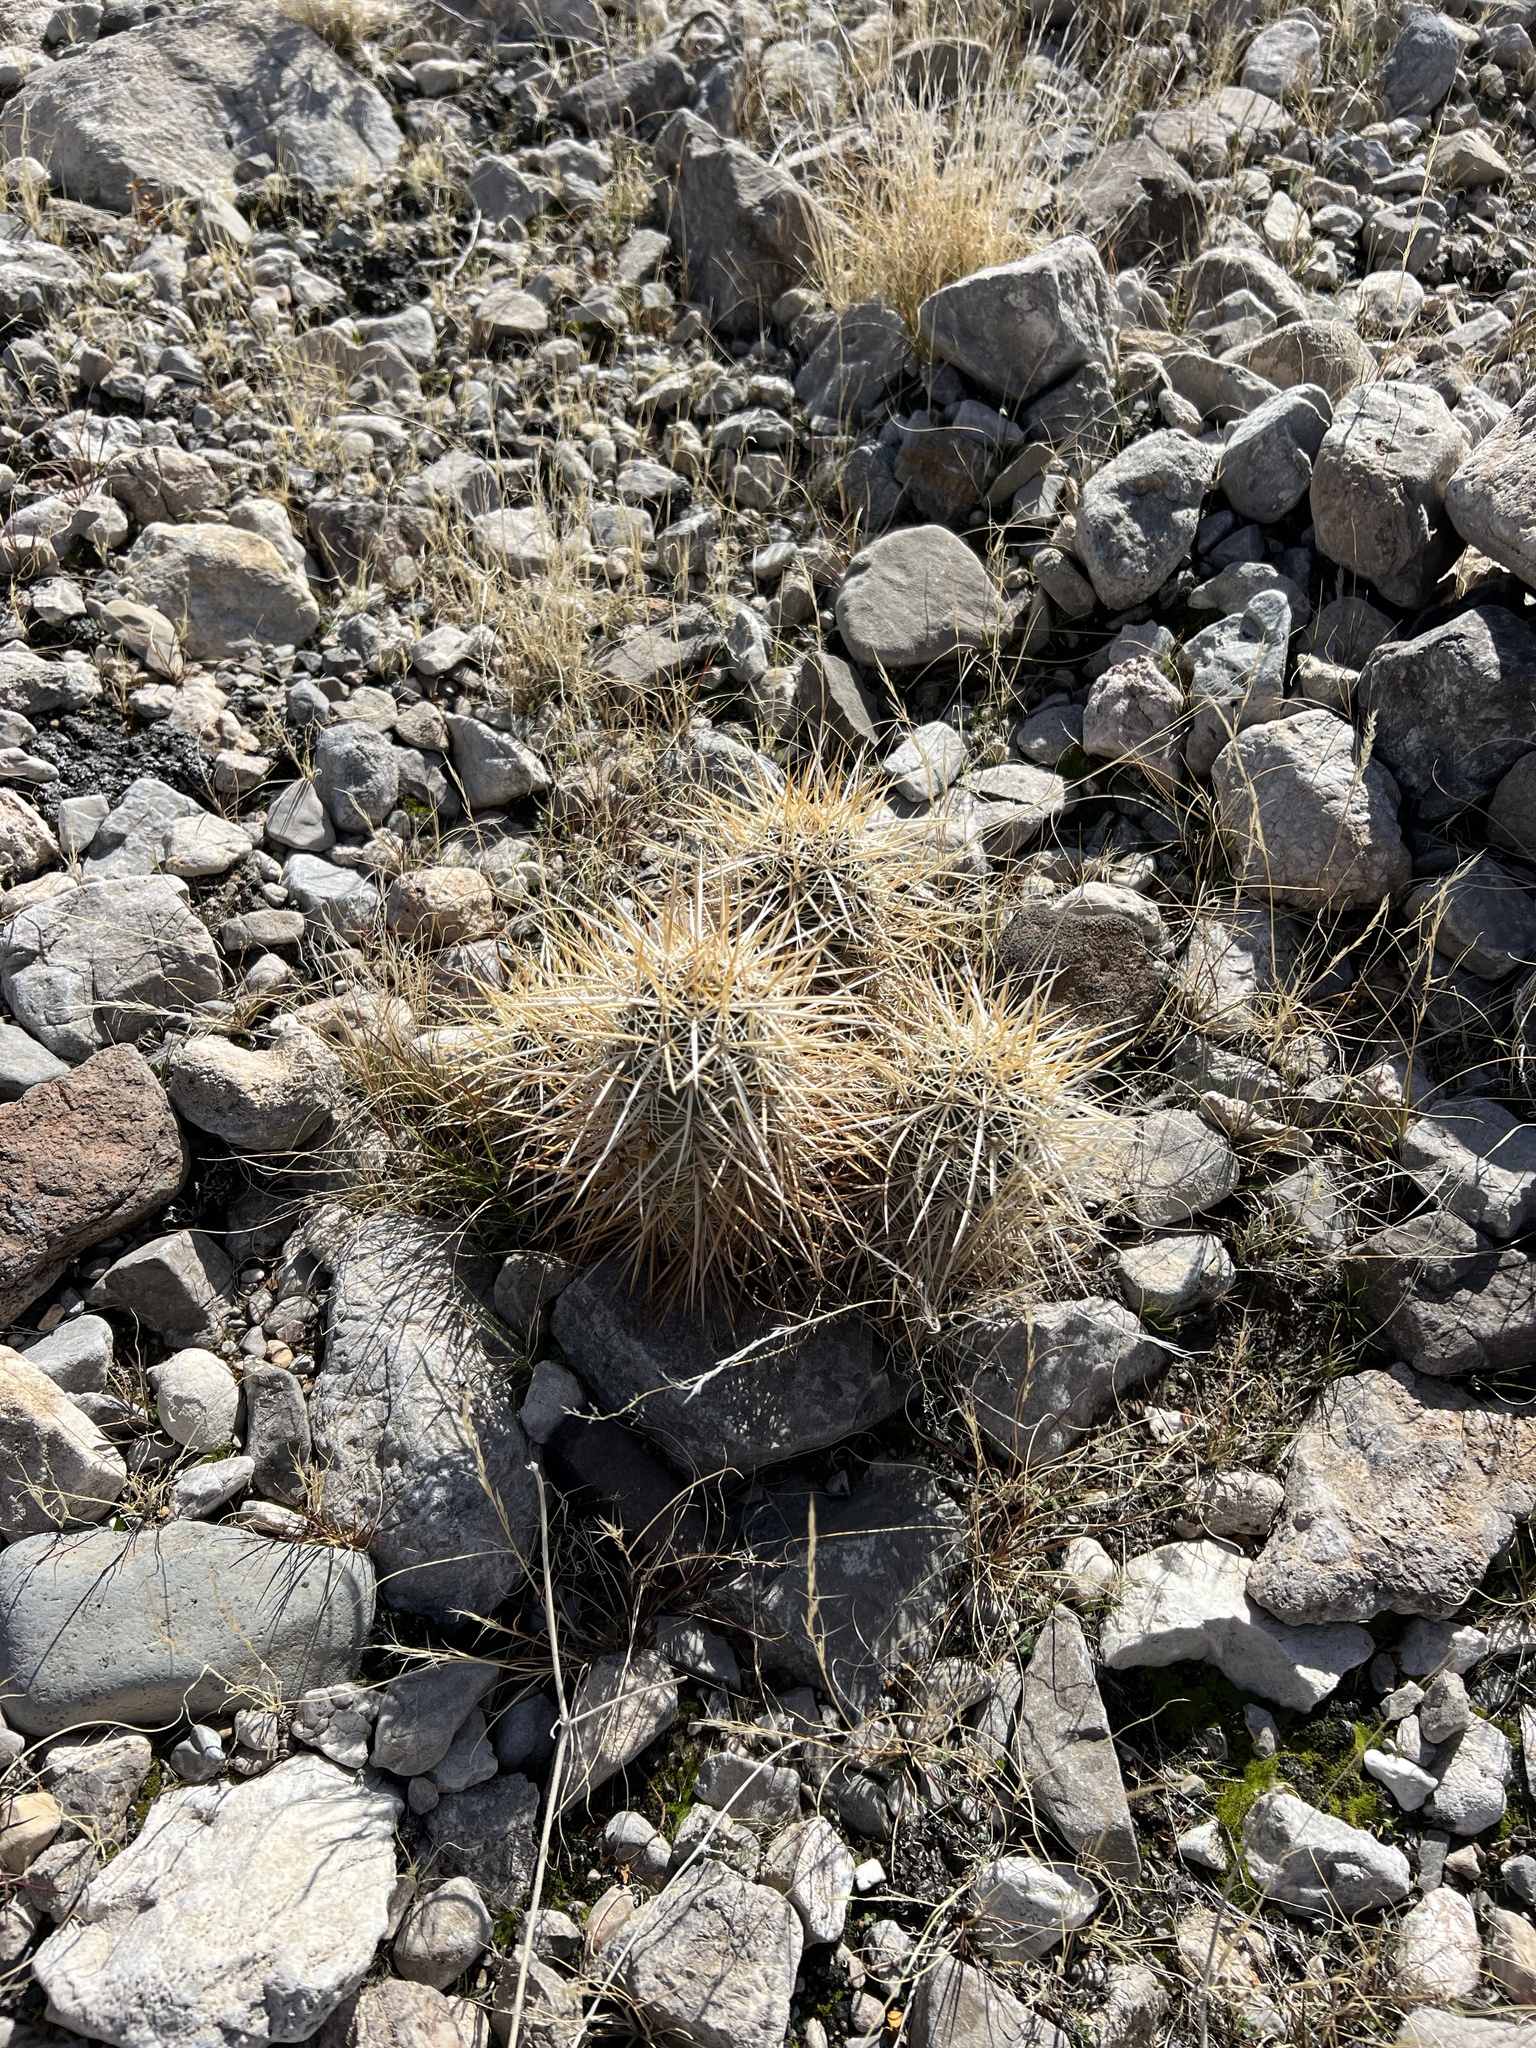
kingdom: Plantae
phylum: Tracheophyta
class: Magnoliopsida
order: Caryophyllales
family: Cactaceae
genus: Echinocereus
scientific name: Echinocereus engelmannii
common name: Engelmann's hedgehog cactus
